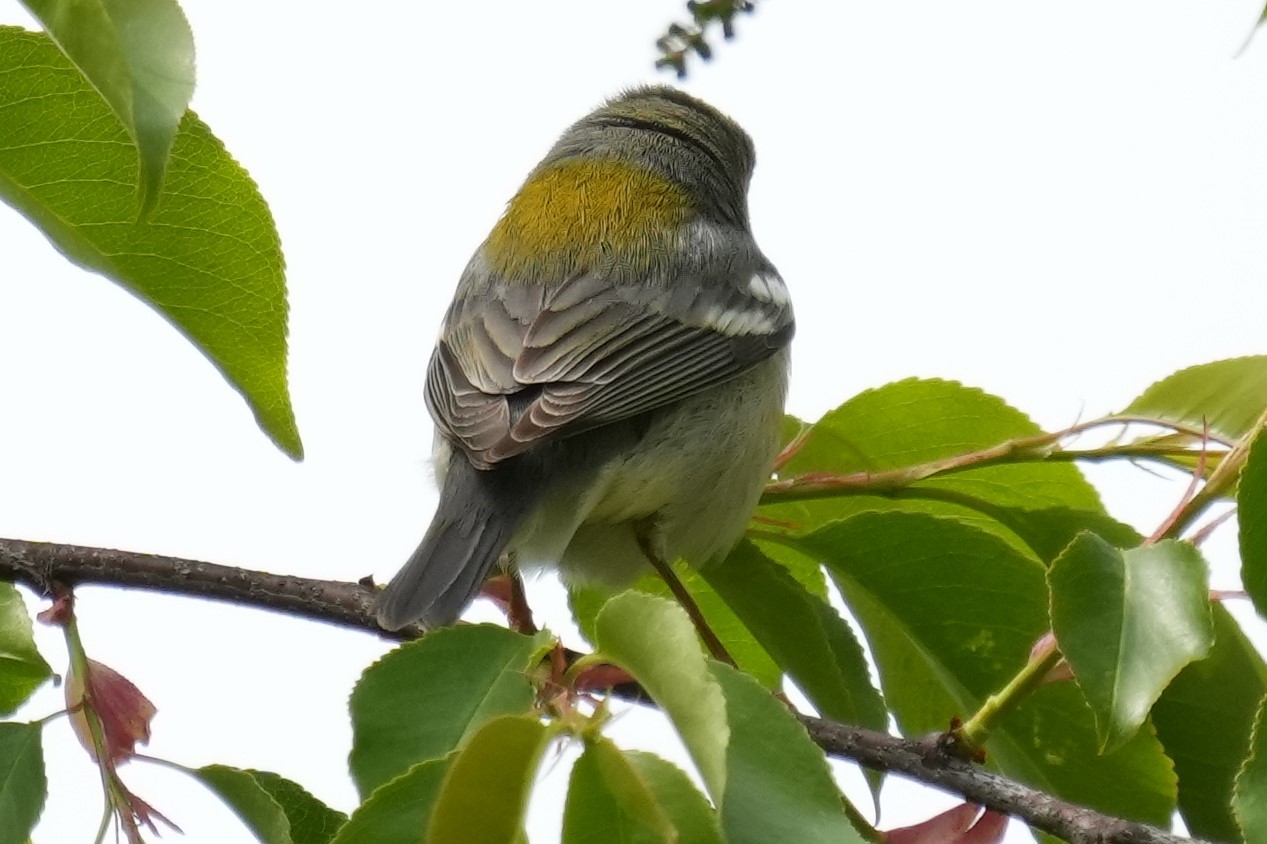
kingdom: Animalia
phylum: Chordata
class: Aves
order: Passeriformes
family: Parulidae
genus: Setophaga
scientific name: Setophaga americana
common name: Northern parula
